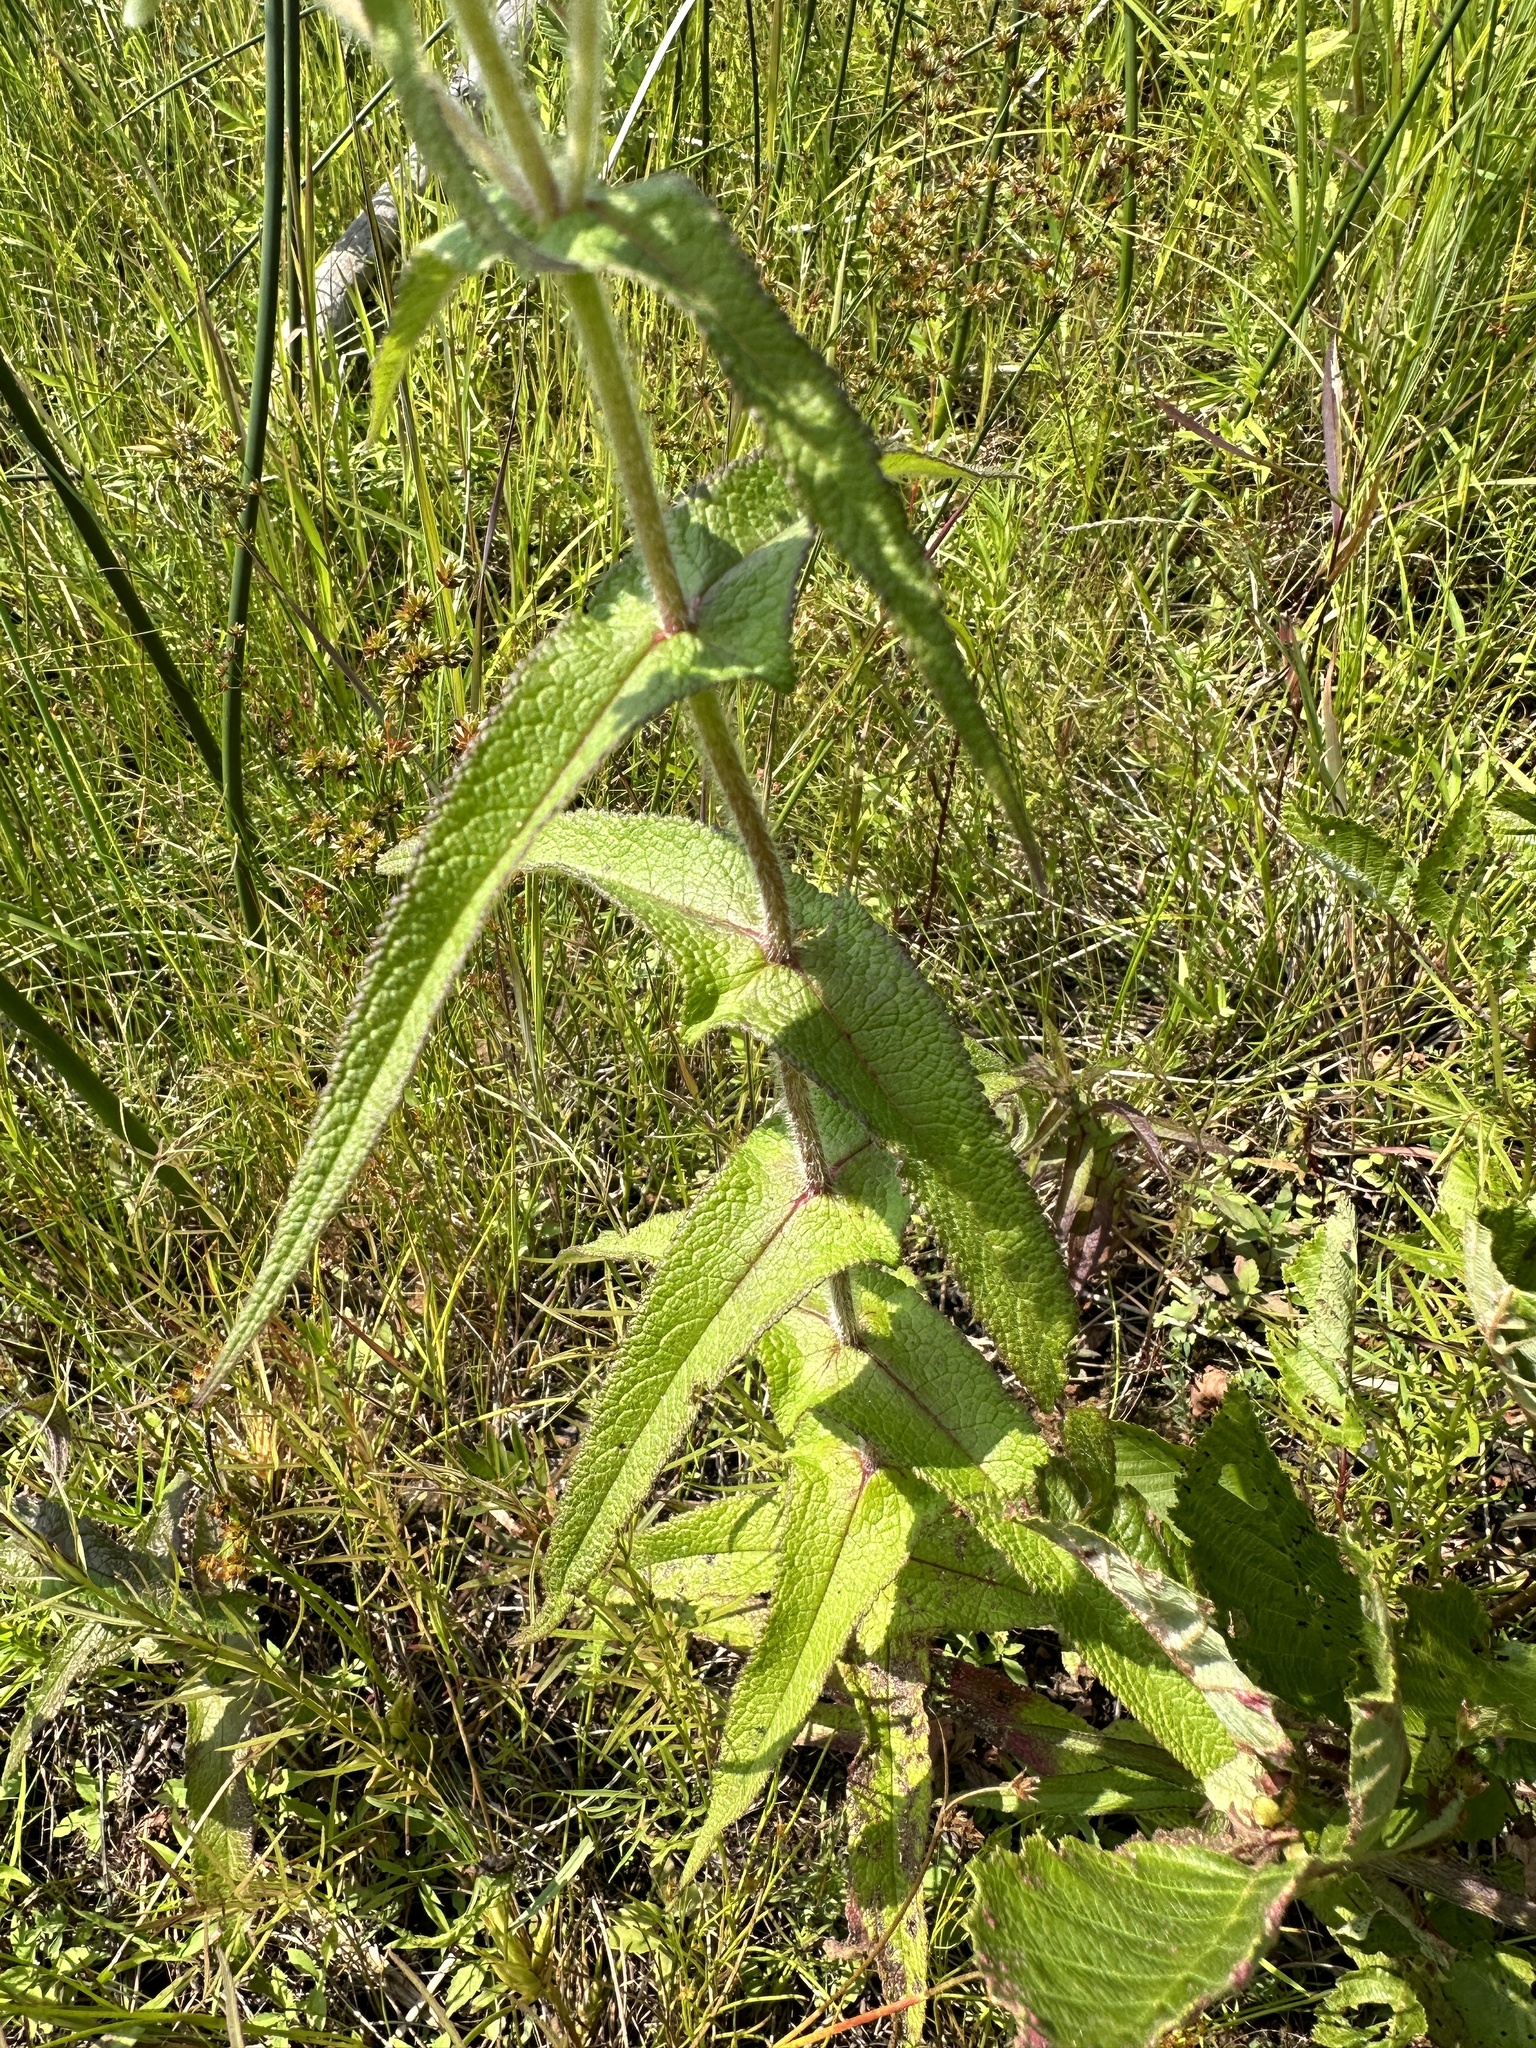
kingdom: Plantae
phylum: Tracheophyta
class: Magnoliopsida
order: Asterales
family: Asteraceae
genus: Eupatorium
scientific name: Eupatorium perfoliatum
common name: Boneset
